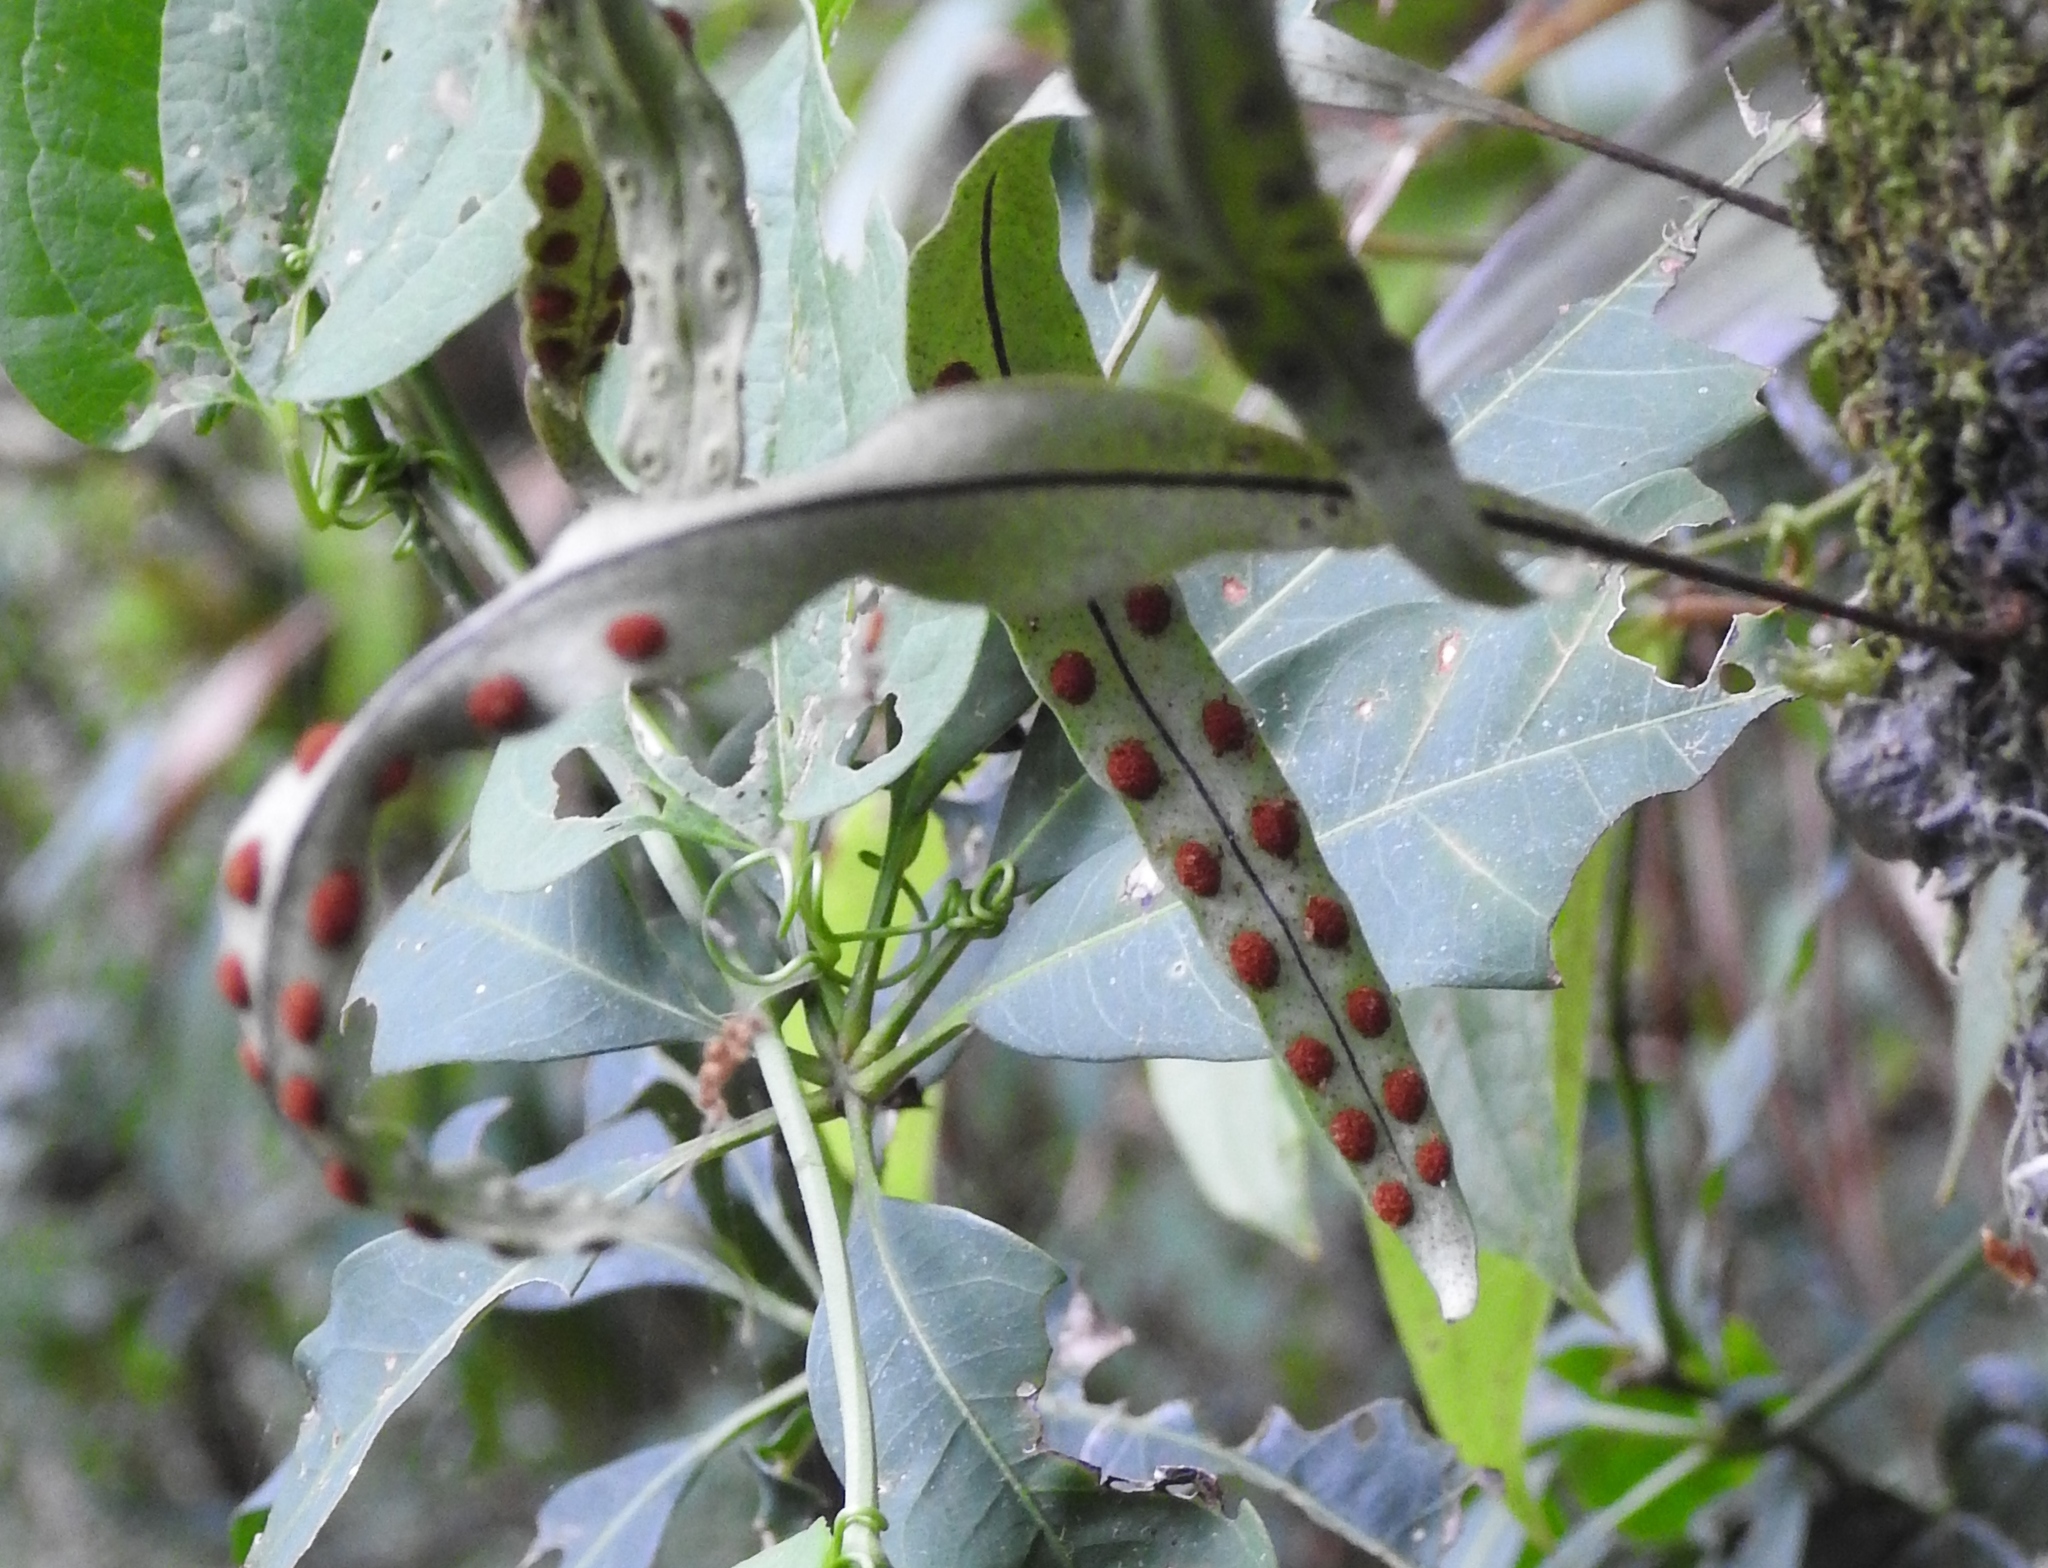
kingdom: Plantae
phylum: Tracheophyta
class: Polypodiopsida
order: Polypodiales
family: Polypodiaceae
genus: Pleopeltis
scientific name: Pleopeltis macrocarpa
